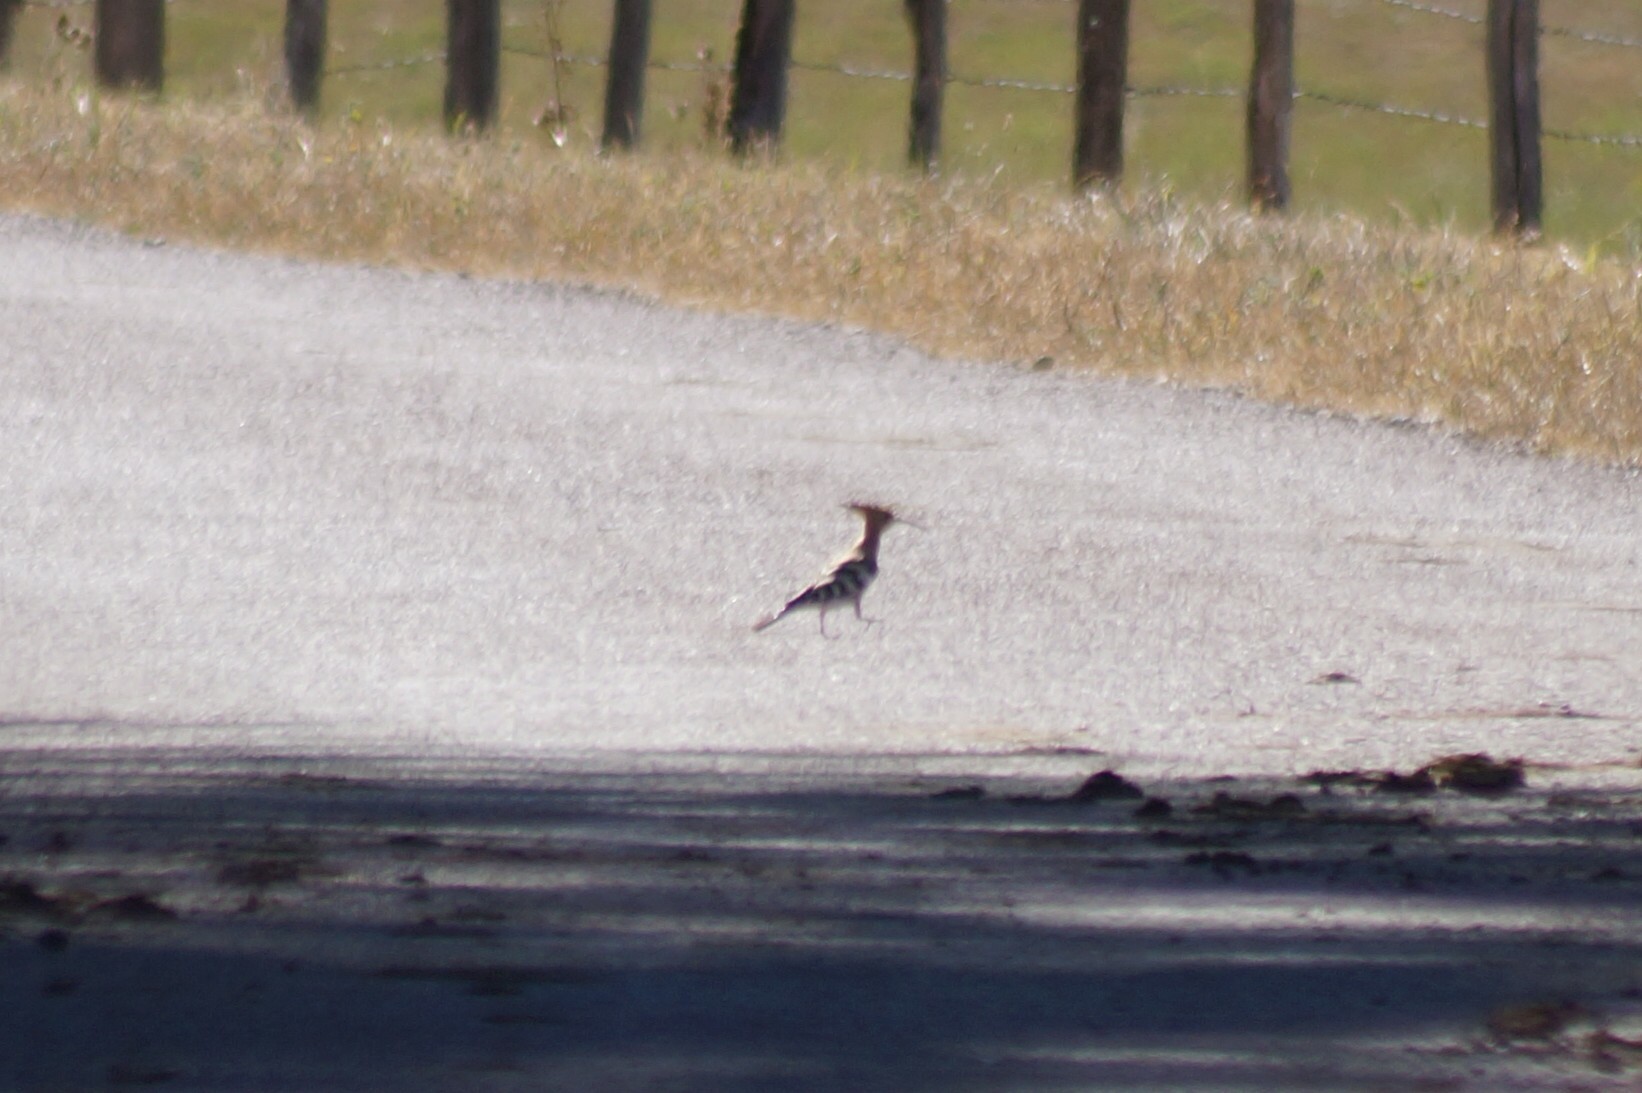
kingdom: Animalia
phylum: Chordata
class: Aves
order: Bucerotiformes
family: Upupidae
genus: Upupa
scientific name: Upupa epops
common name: Eurasian hoopoe
